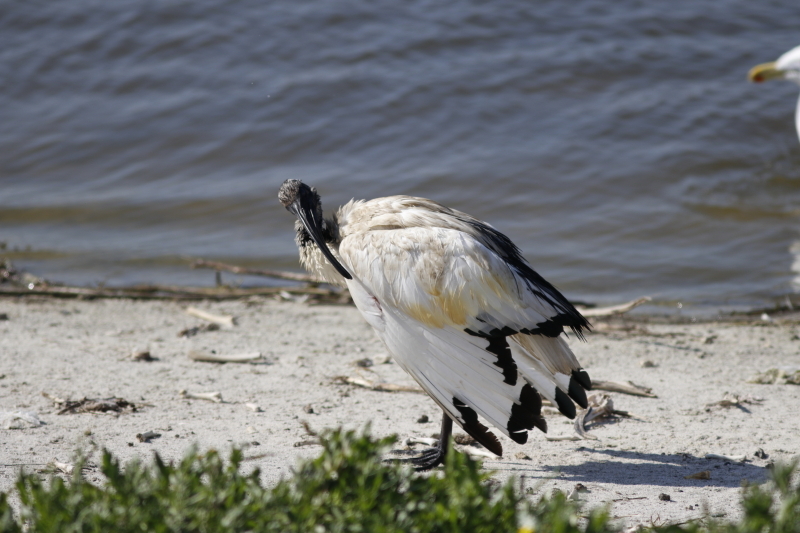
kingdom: Animalia
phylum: Chordata
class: Aves
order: Pelecaniformes
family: Threskiornithidae
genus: Threskiornis
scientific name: Threskiornis aethiopicus
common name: Sacred ibis
